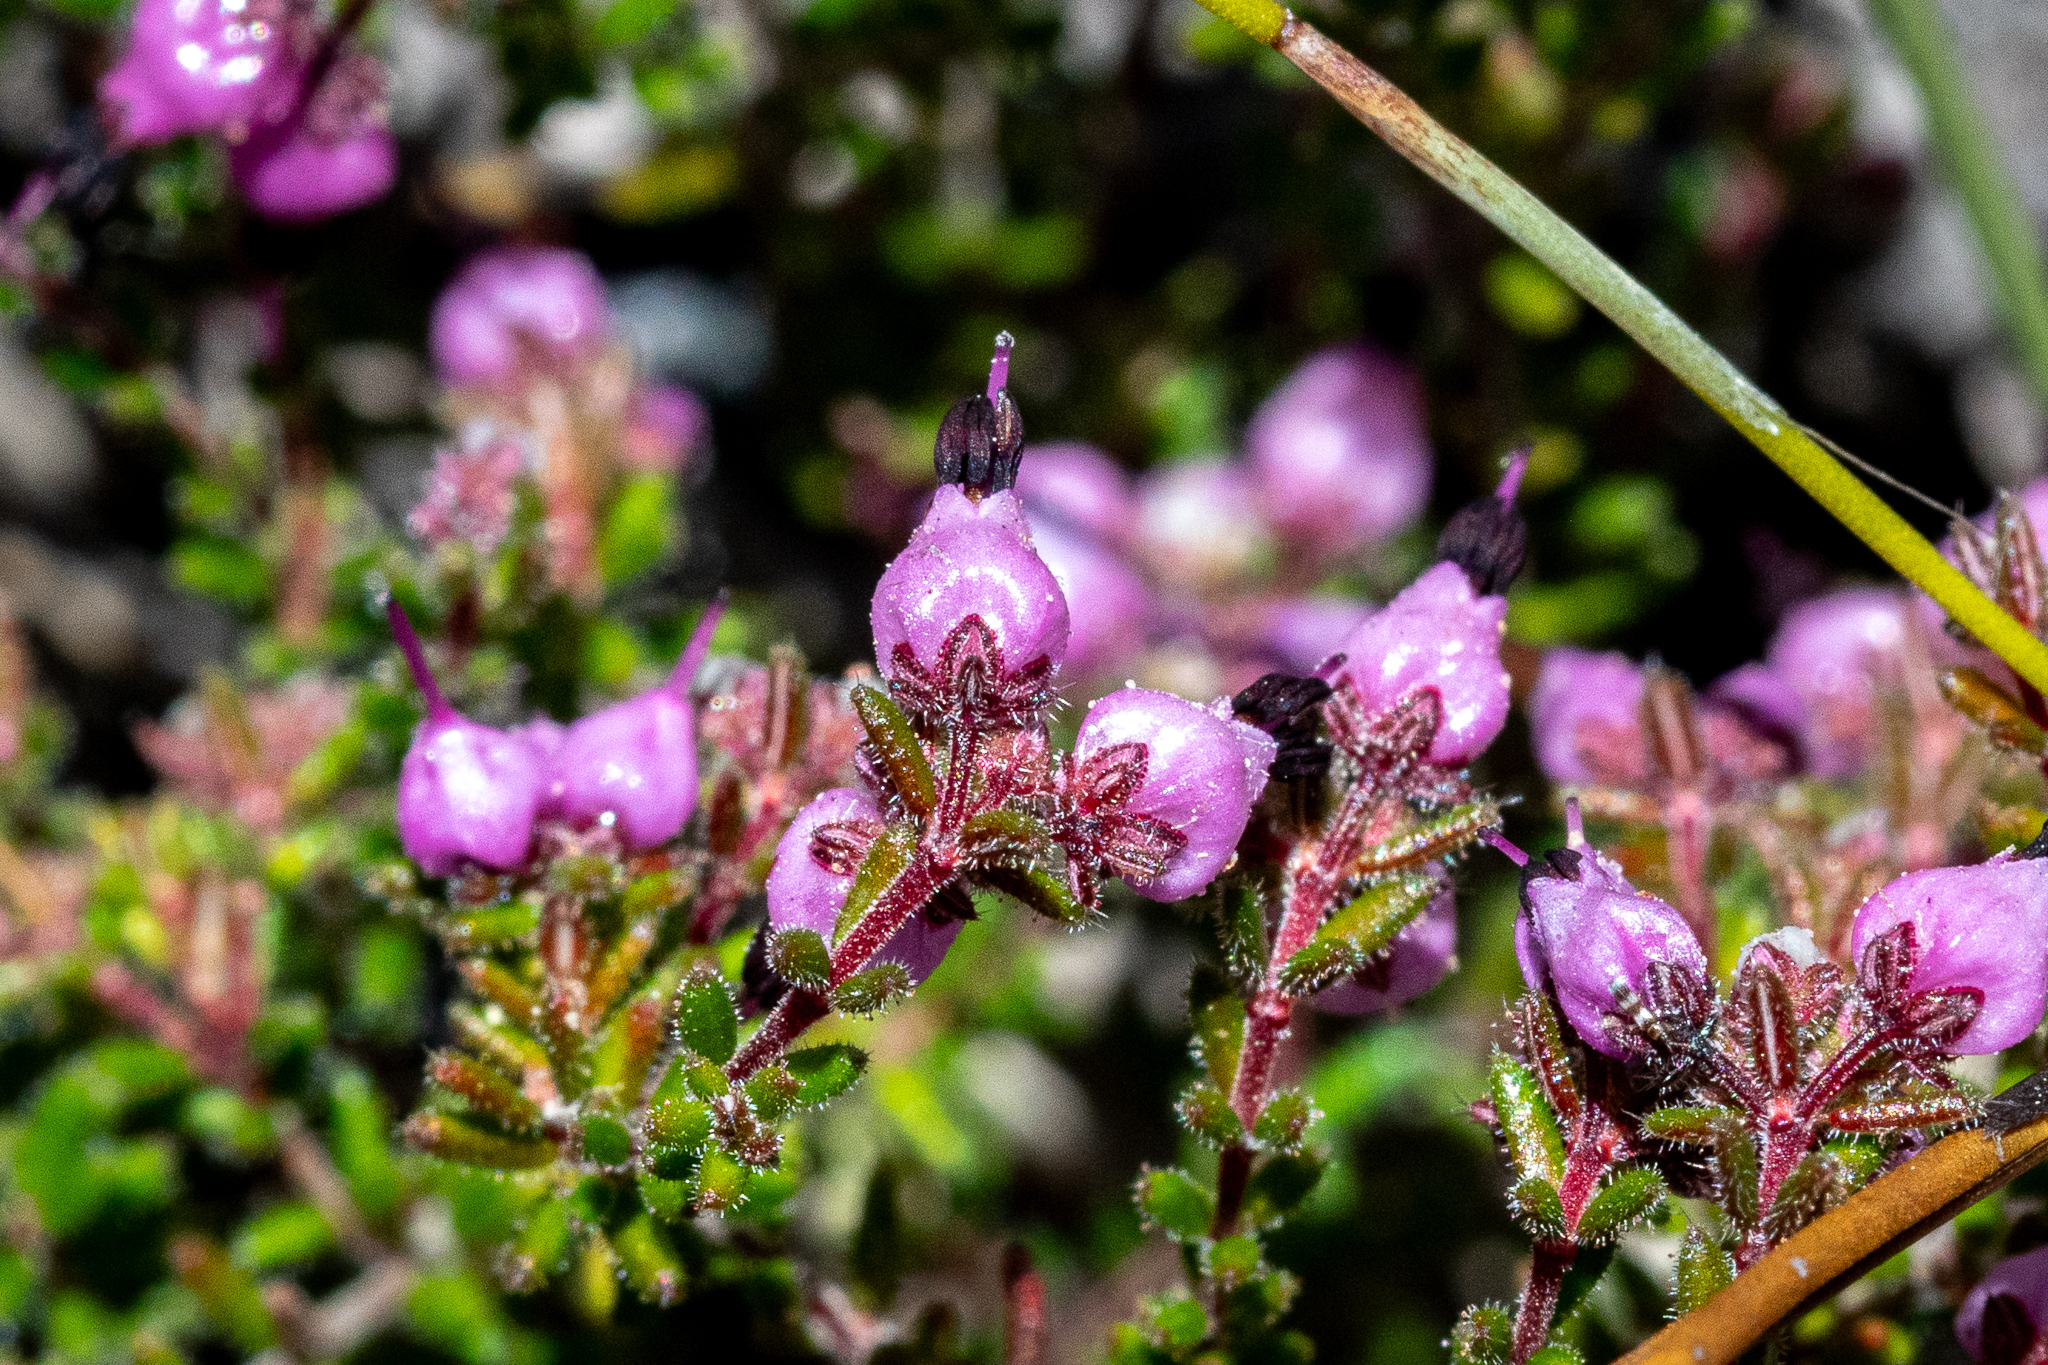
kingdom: Plantae
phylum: Tracheophyta
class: Magnoliopsida
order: Ericales
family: Ericaceae
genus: Erica
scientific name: Erica filiformis
